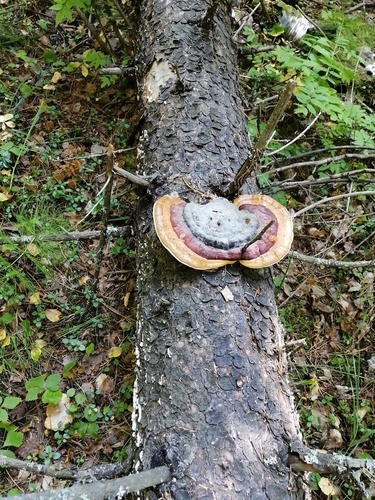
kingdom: Fungi
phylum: Basidiomycota
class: Agaricomycetes
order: Polyporales
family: Fomitopsidaceae
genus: Fomitopsis
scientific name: Fomitopsis pinicola
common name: Red-belted bracket
